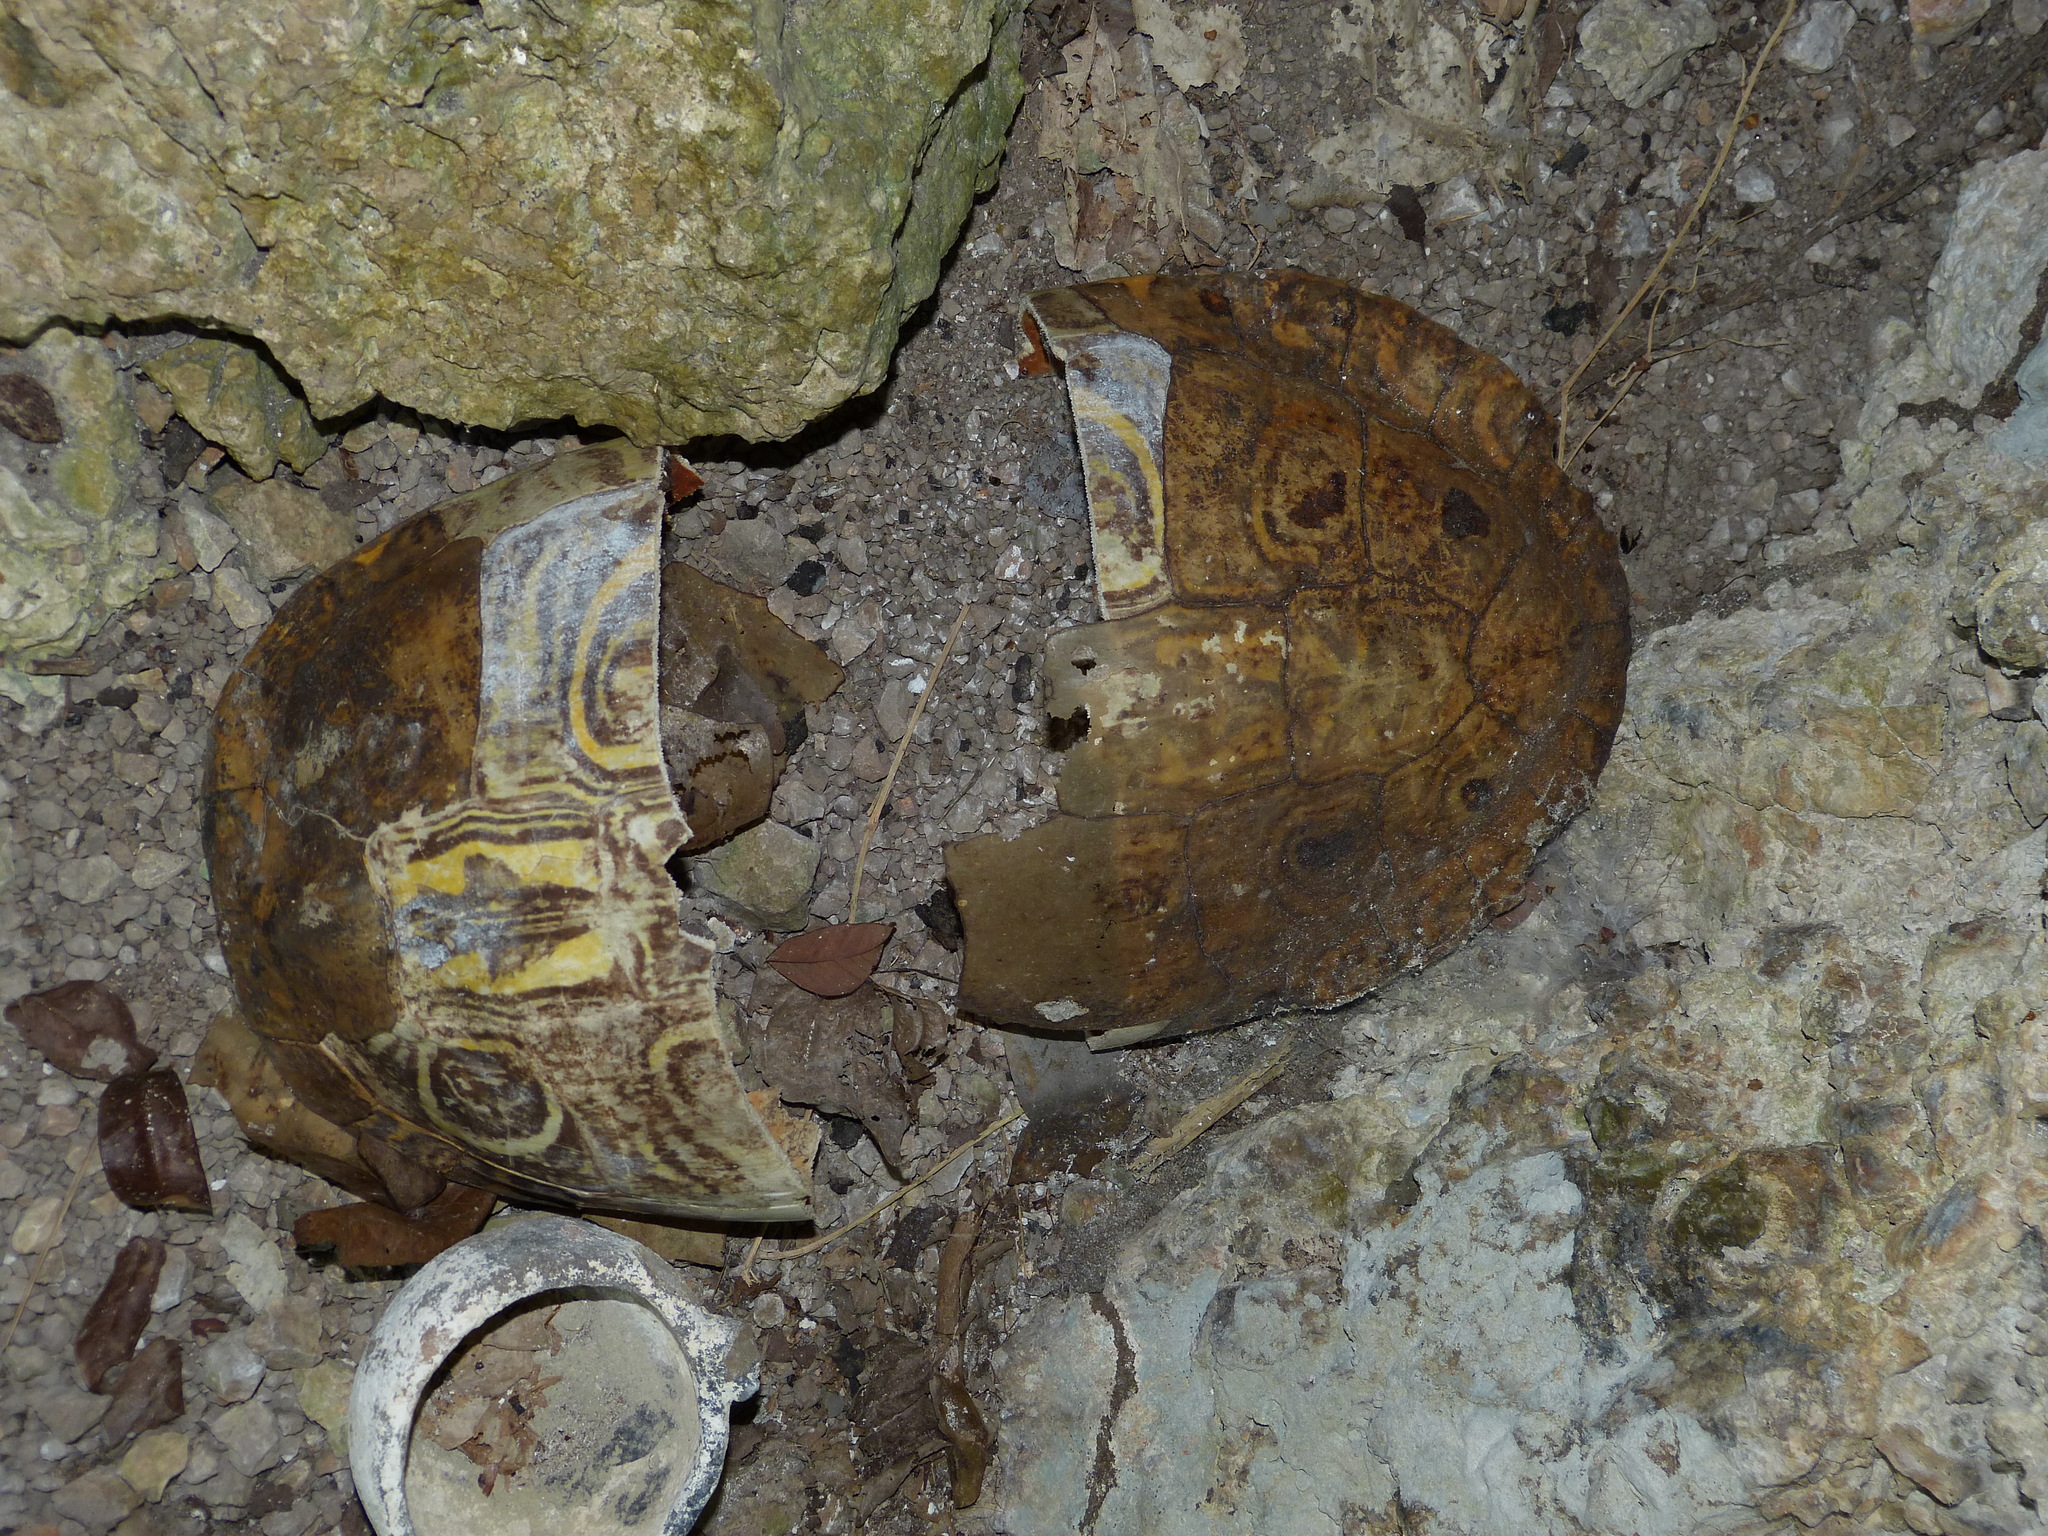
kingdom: Animalia
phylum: Chordata
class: Testudines
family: Emydidae
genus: Trachemys
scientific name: Trachemys venusta
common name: Mesoamerican slider
